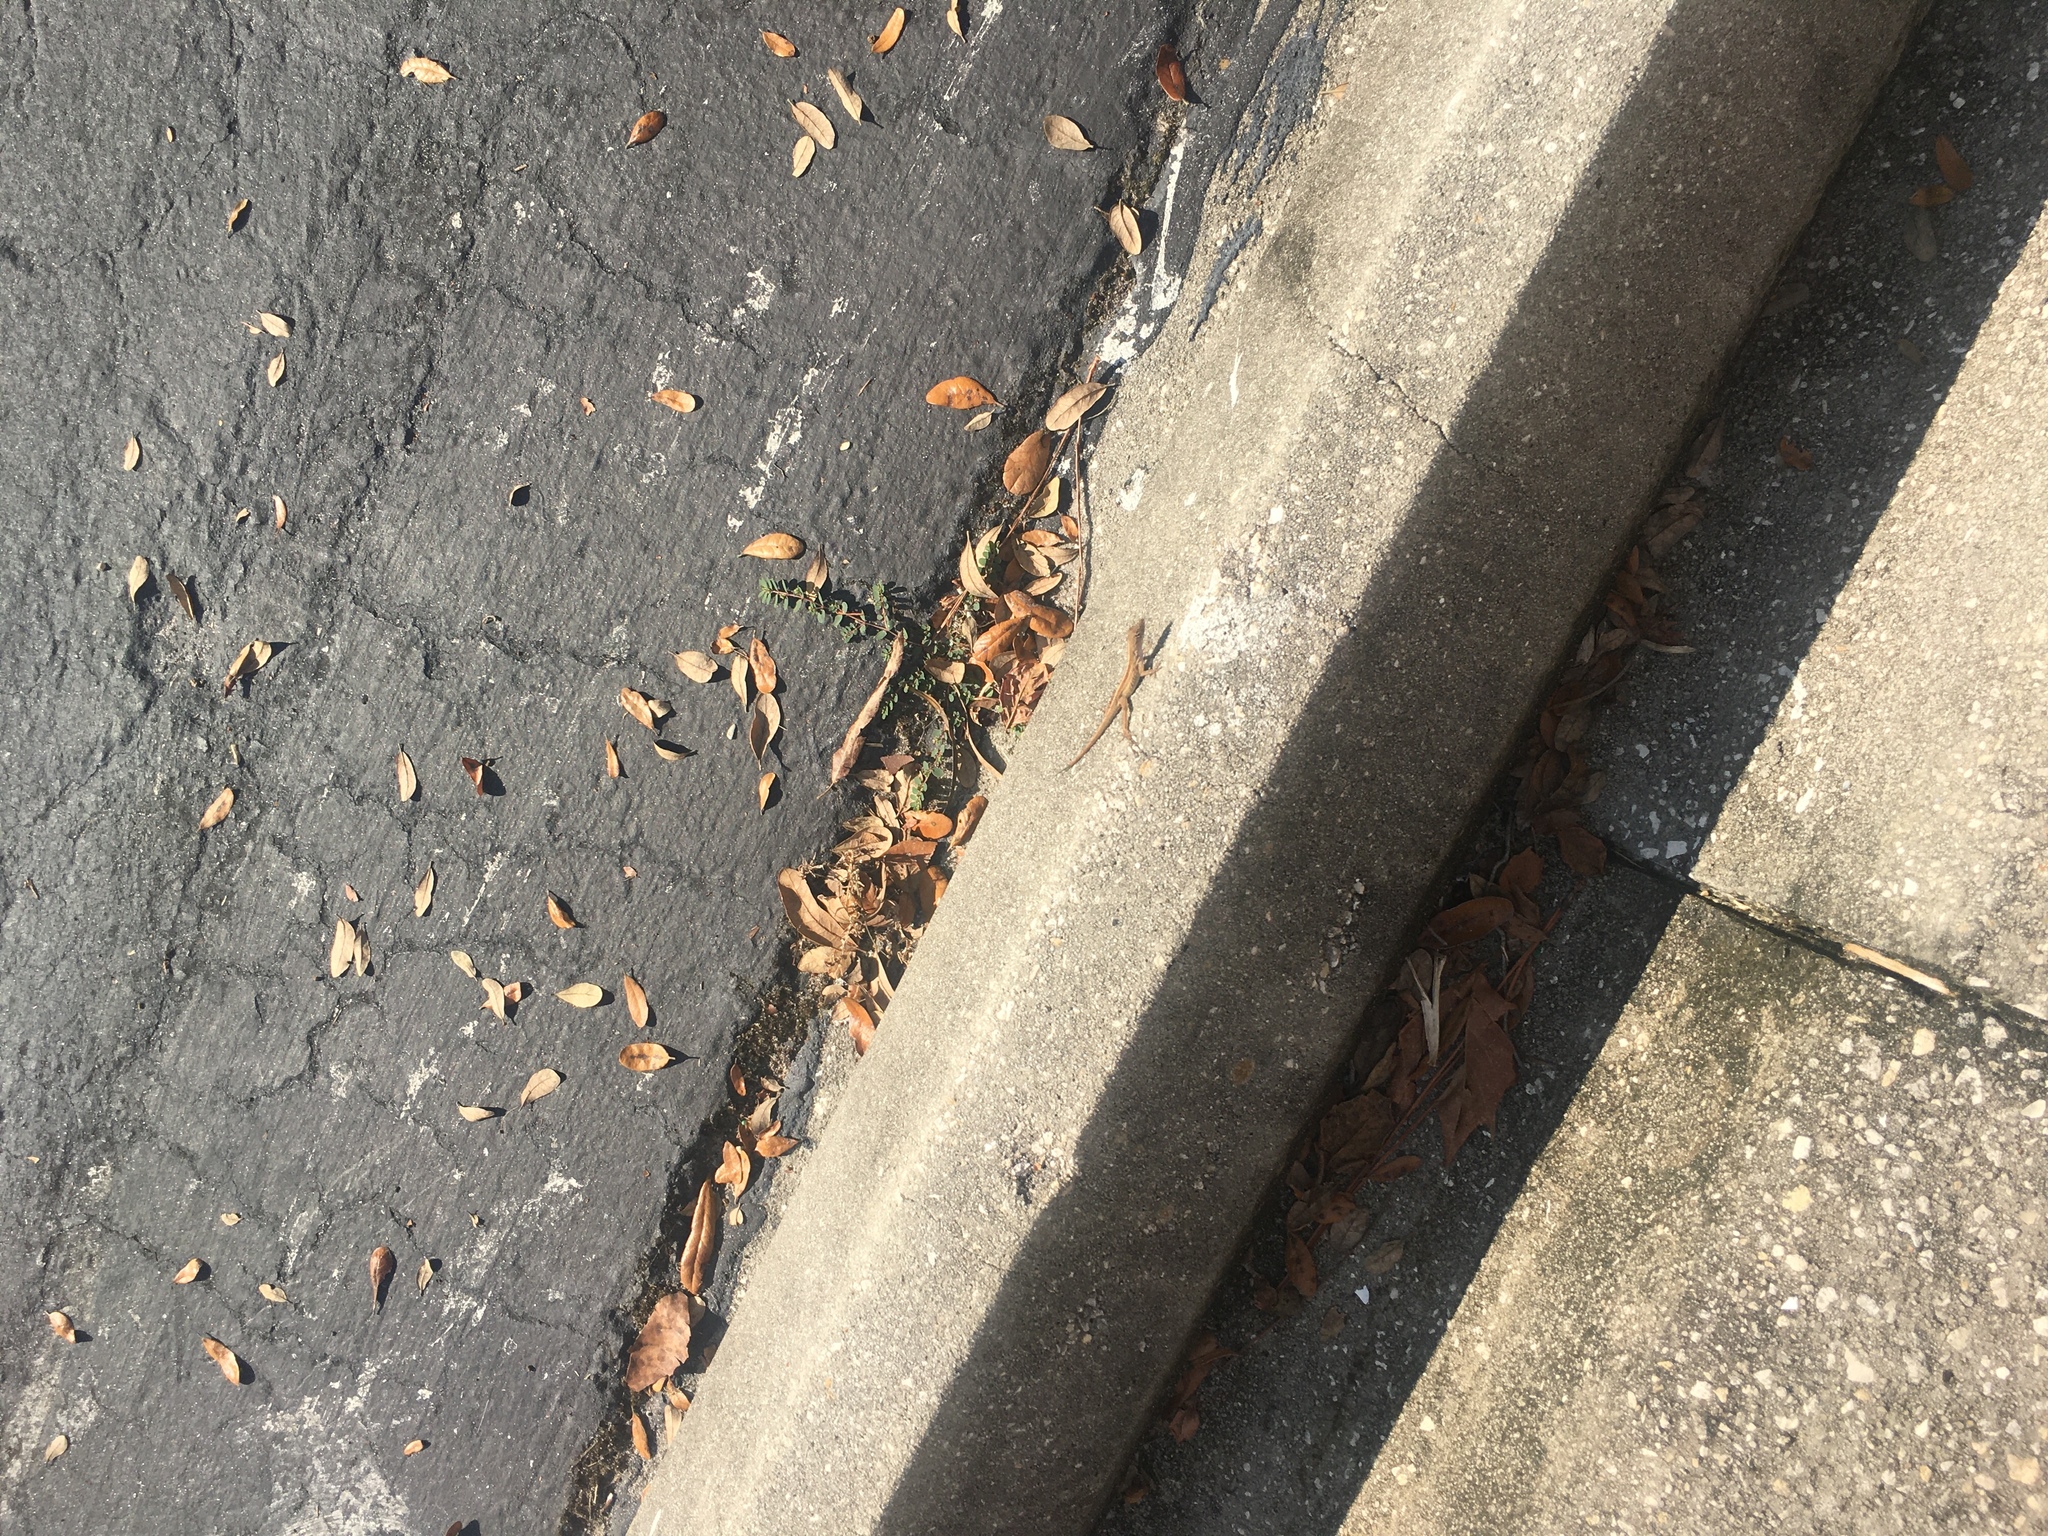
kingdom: Animalia
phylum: Chordata
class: Squamata
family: Dactyloidae
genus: Anolis
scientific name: Anolis sagrei
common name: Brown anole
